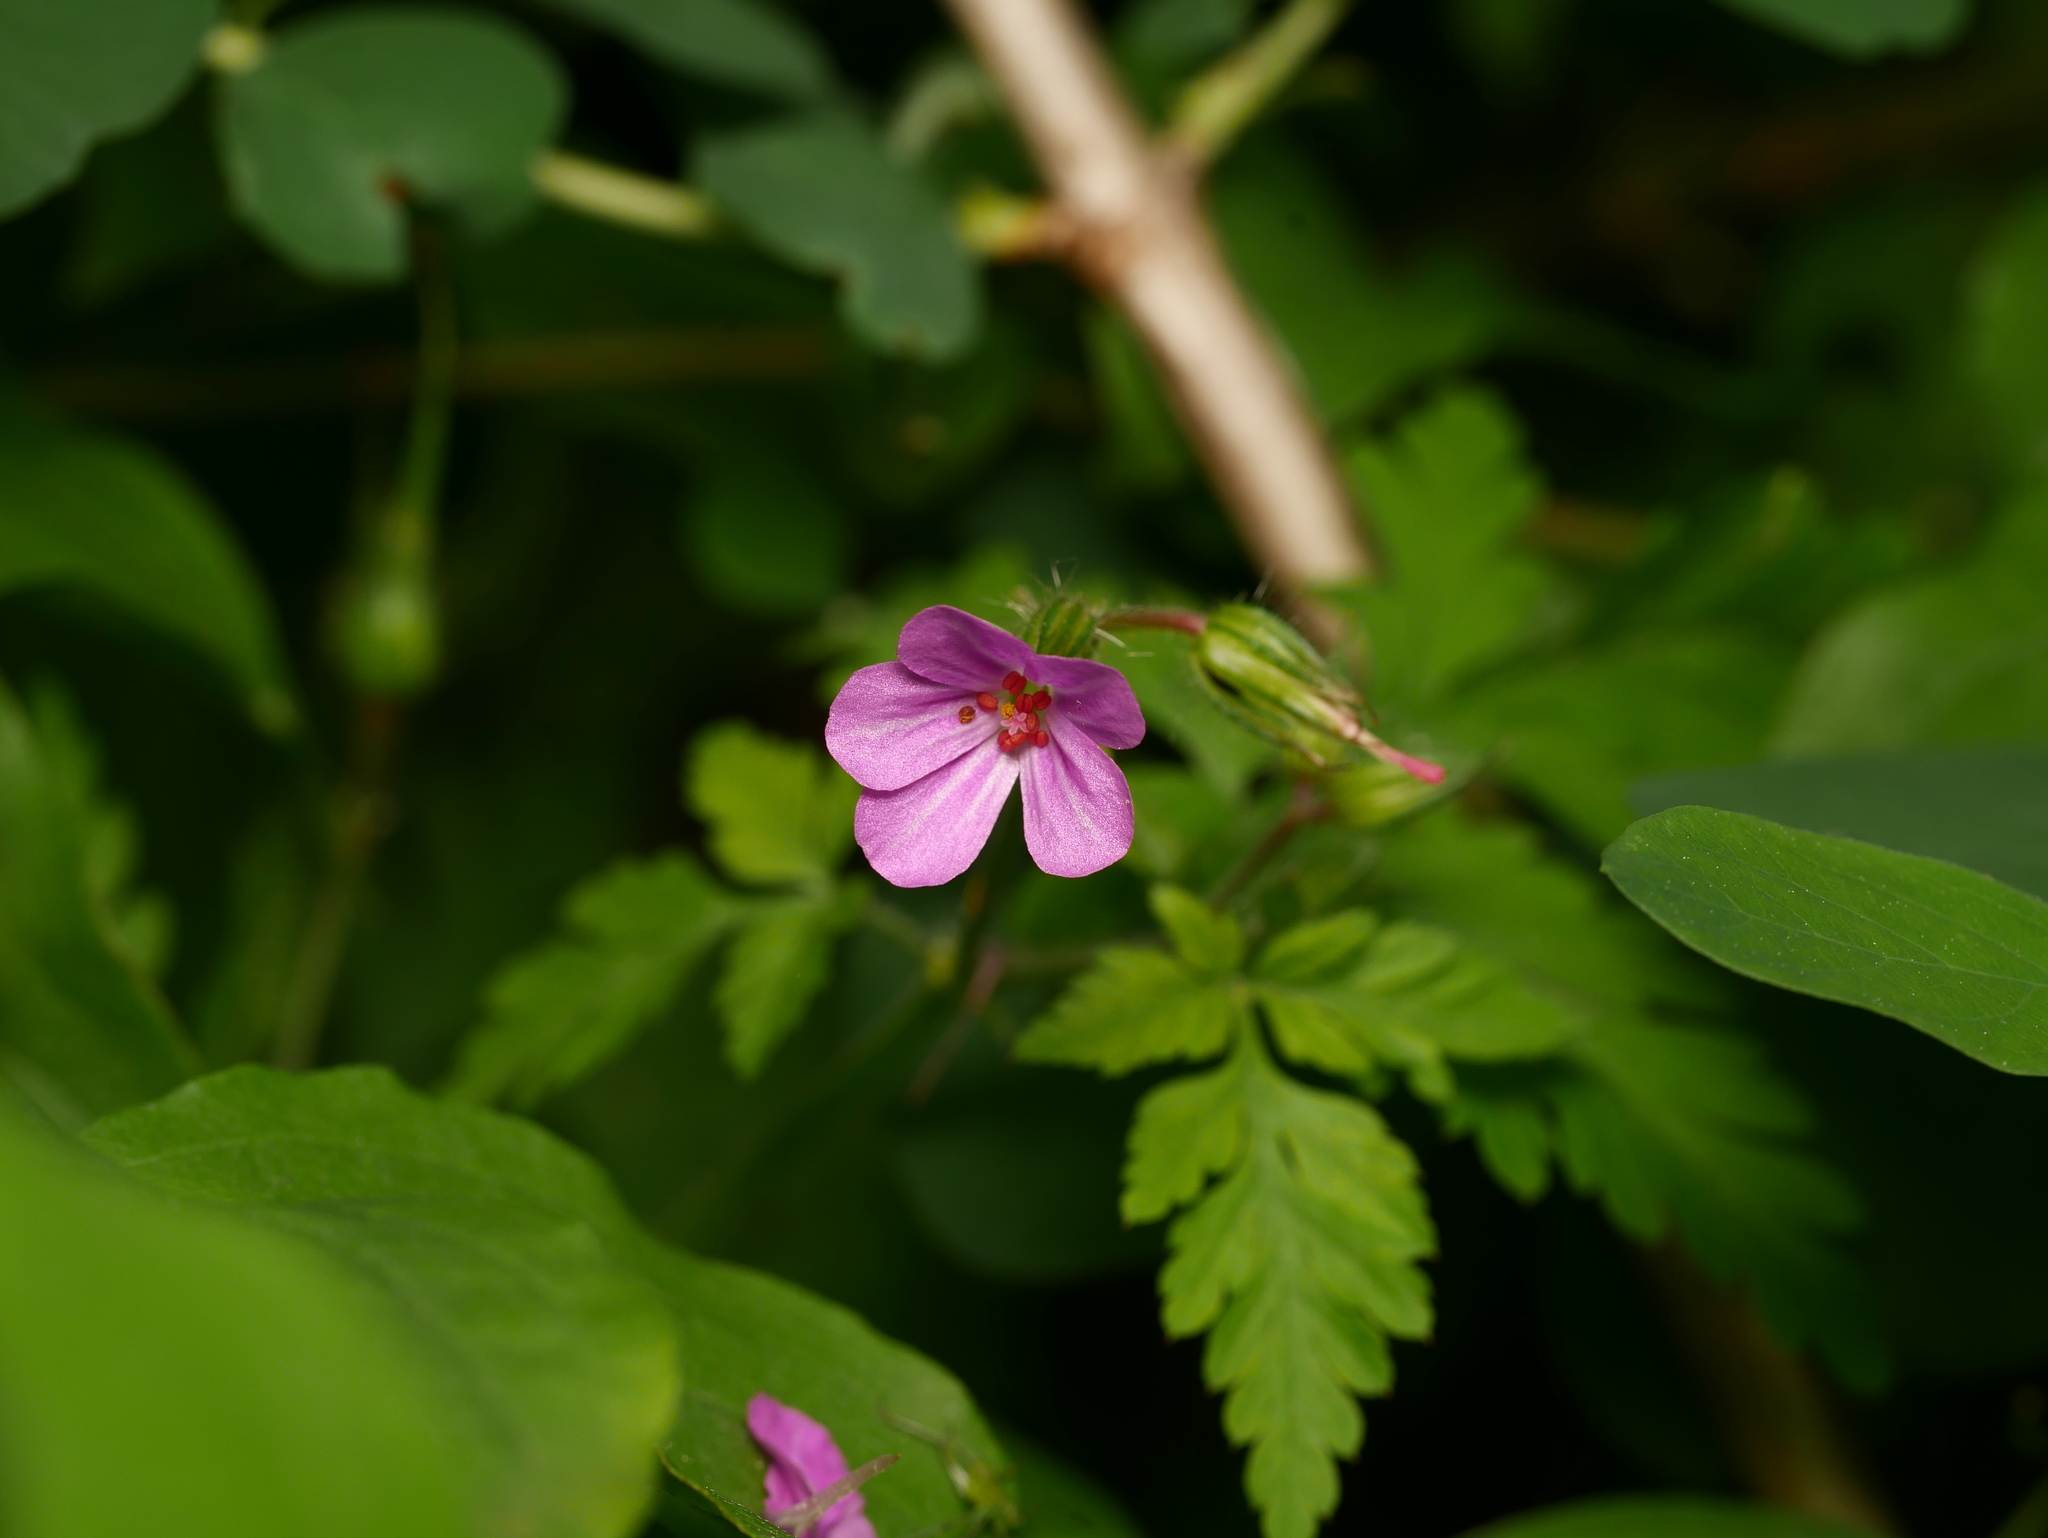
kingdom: Plantae
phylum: Tracheophyta
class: Magnoliopsida
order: Geraniales
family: Geraniaceae
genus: Geranium
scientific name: Geranium robertianum
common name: Herb-robert
